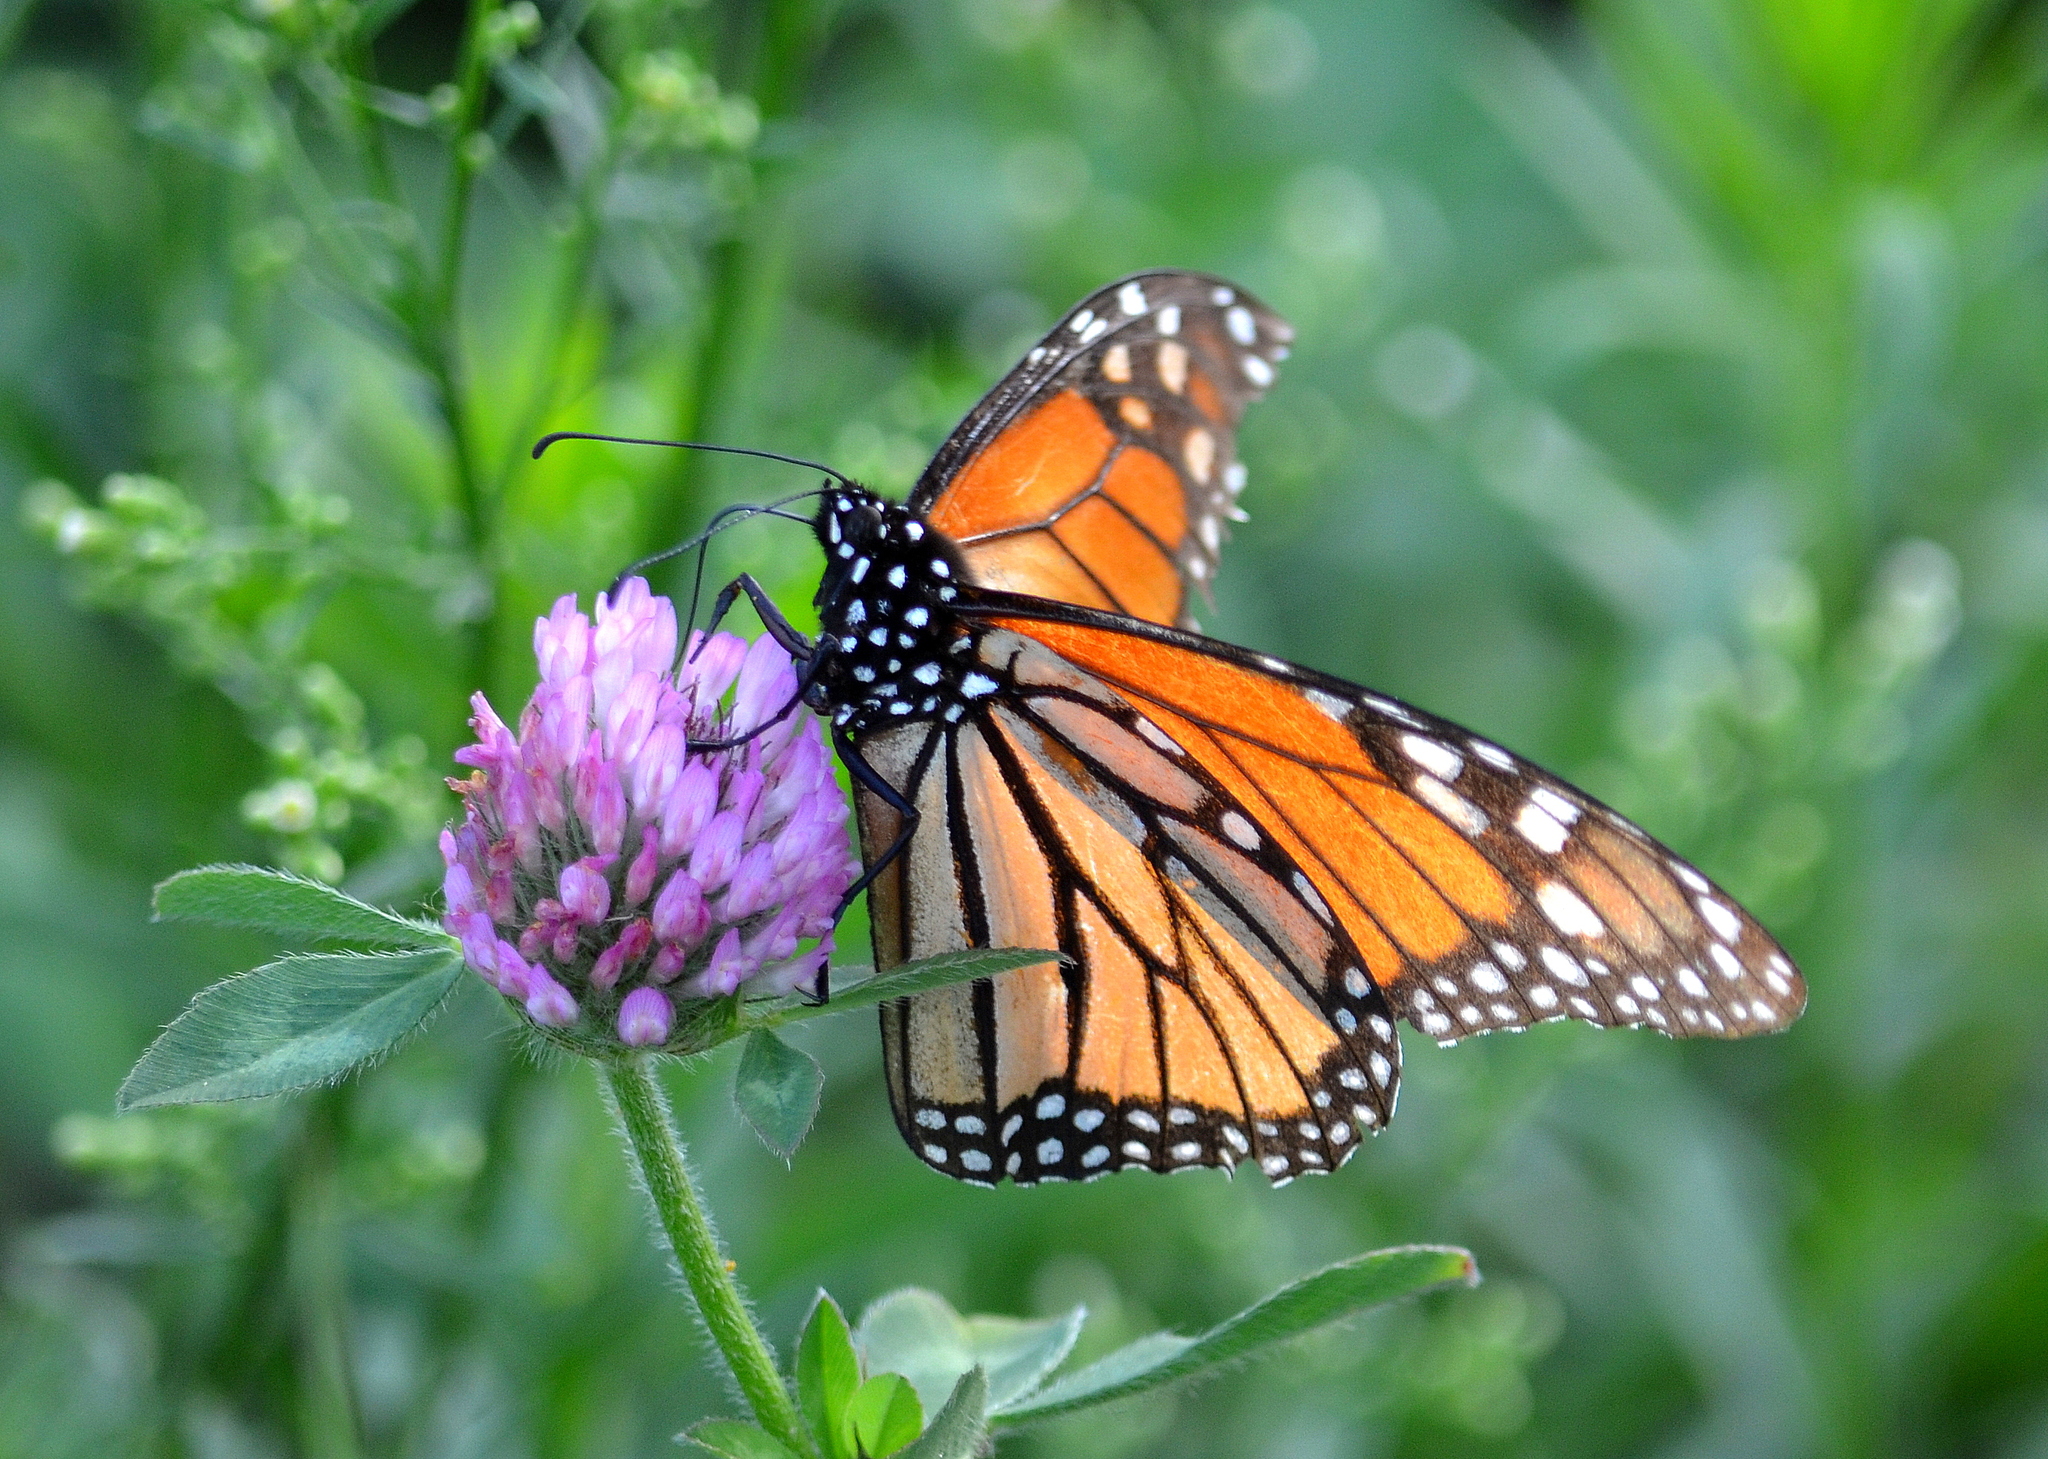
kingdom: Animalia
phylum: Arthropoda
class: Insecta
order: Lepidoptera
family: Nymphalidae
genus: Danaus
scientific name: Danaus plexippus
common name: Monarch
